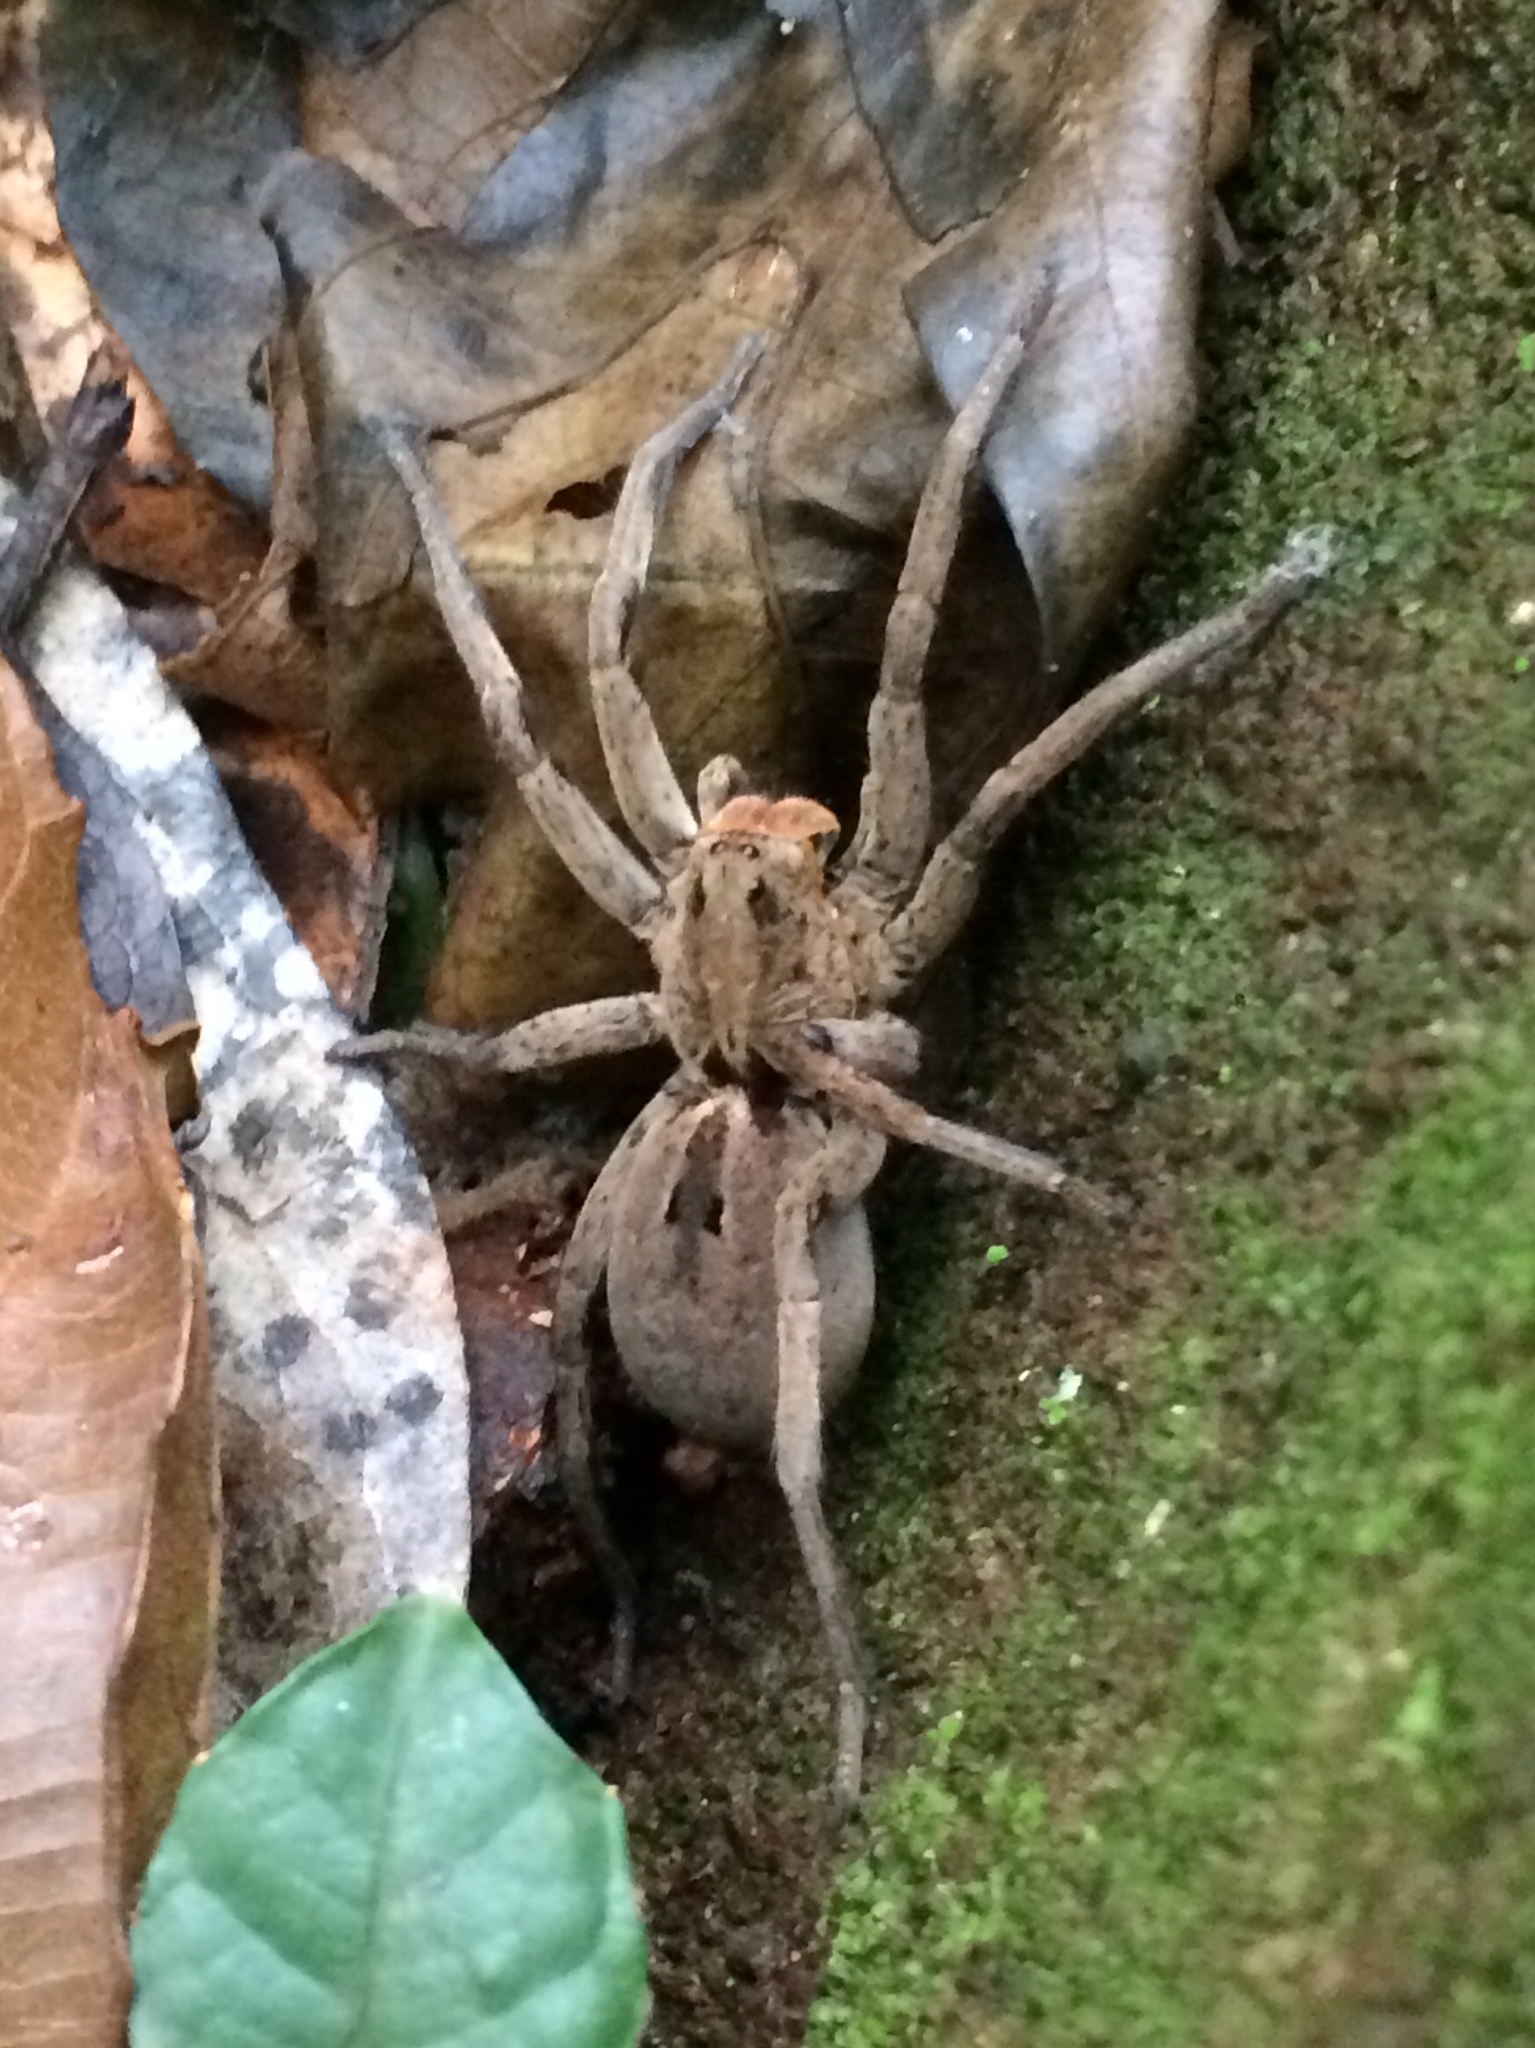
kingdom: Animalia
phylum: Arthropoda
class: Arachnida
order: Araneae
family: Lycosidae
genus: Lycosa
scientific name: Lycosa erythrognatha
